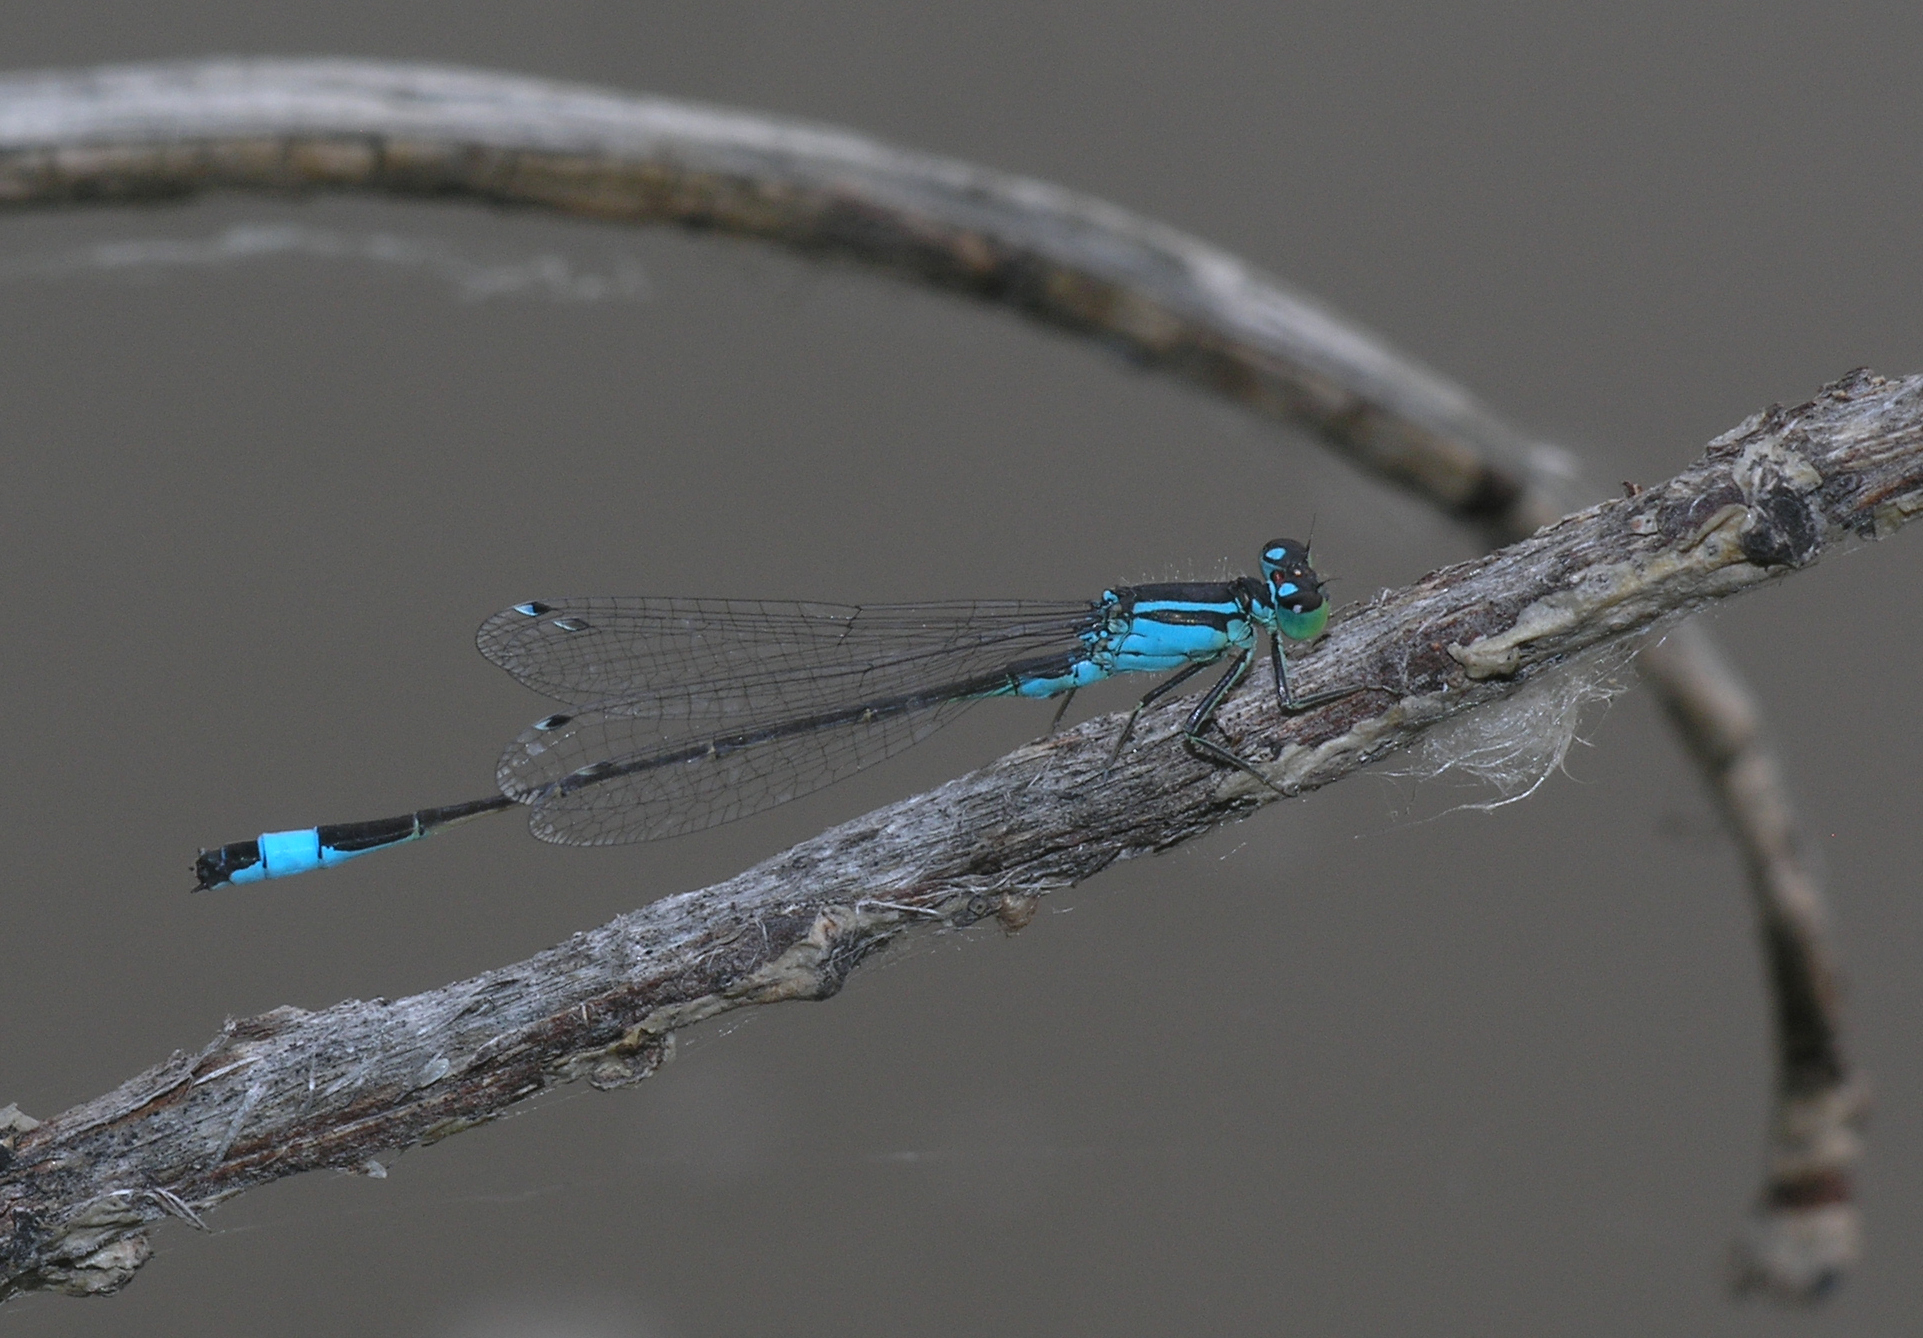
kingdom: Animalia
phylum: Arthropoda
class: Insecta
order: Odonata
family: Coenagrionidae
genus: Ischnura
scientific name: Ischnura elegans
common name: Blue-tailed damselfly
